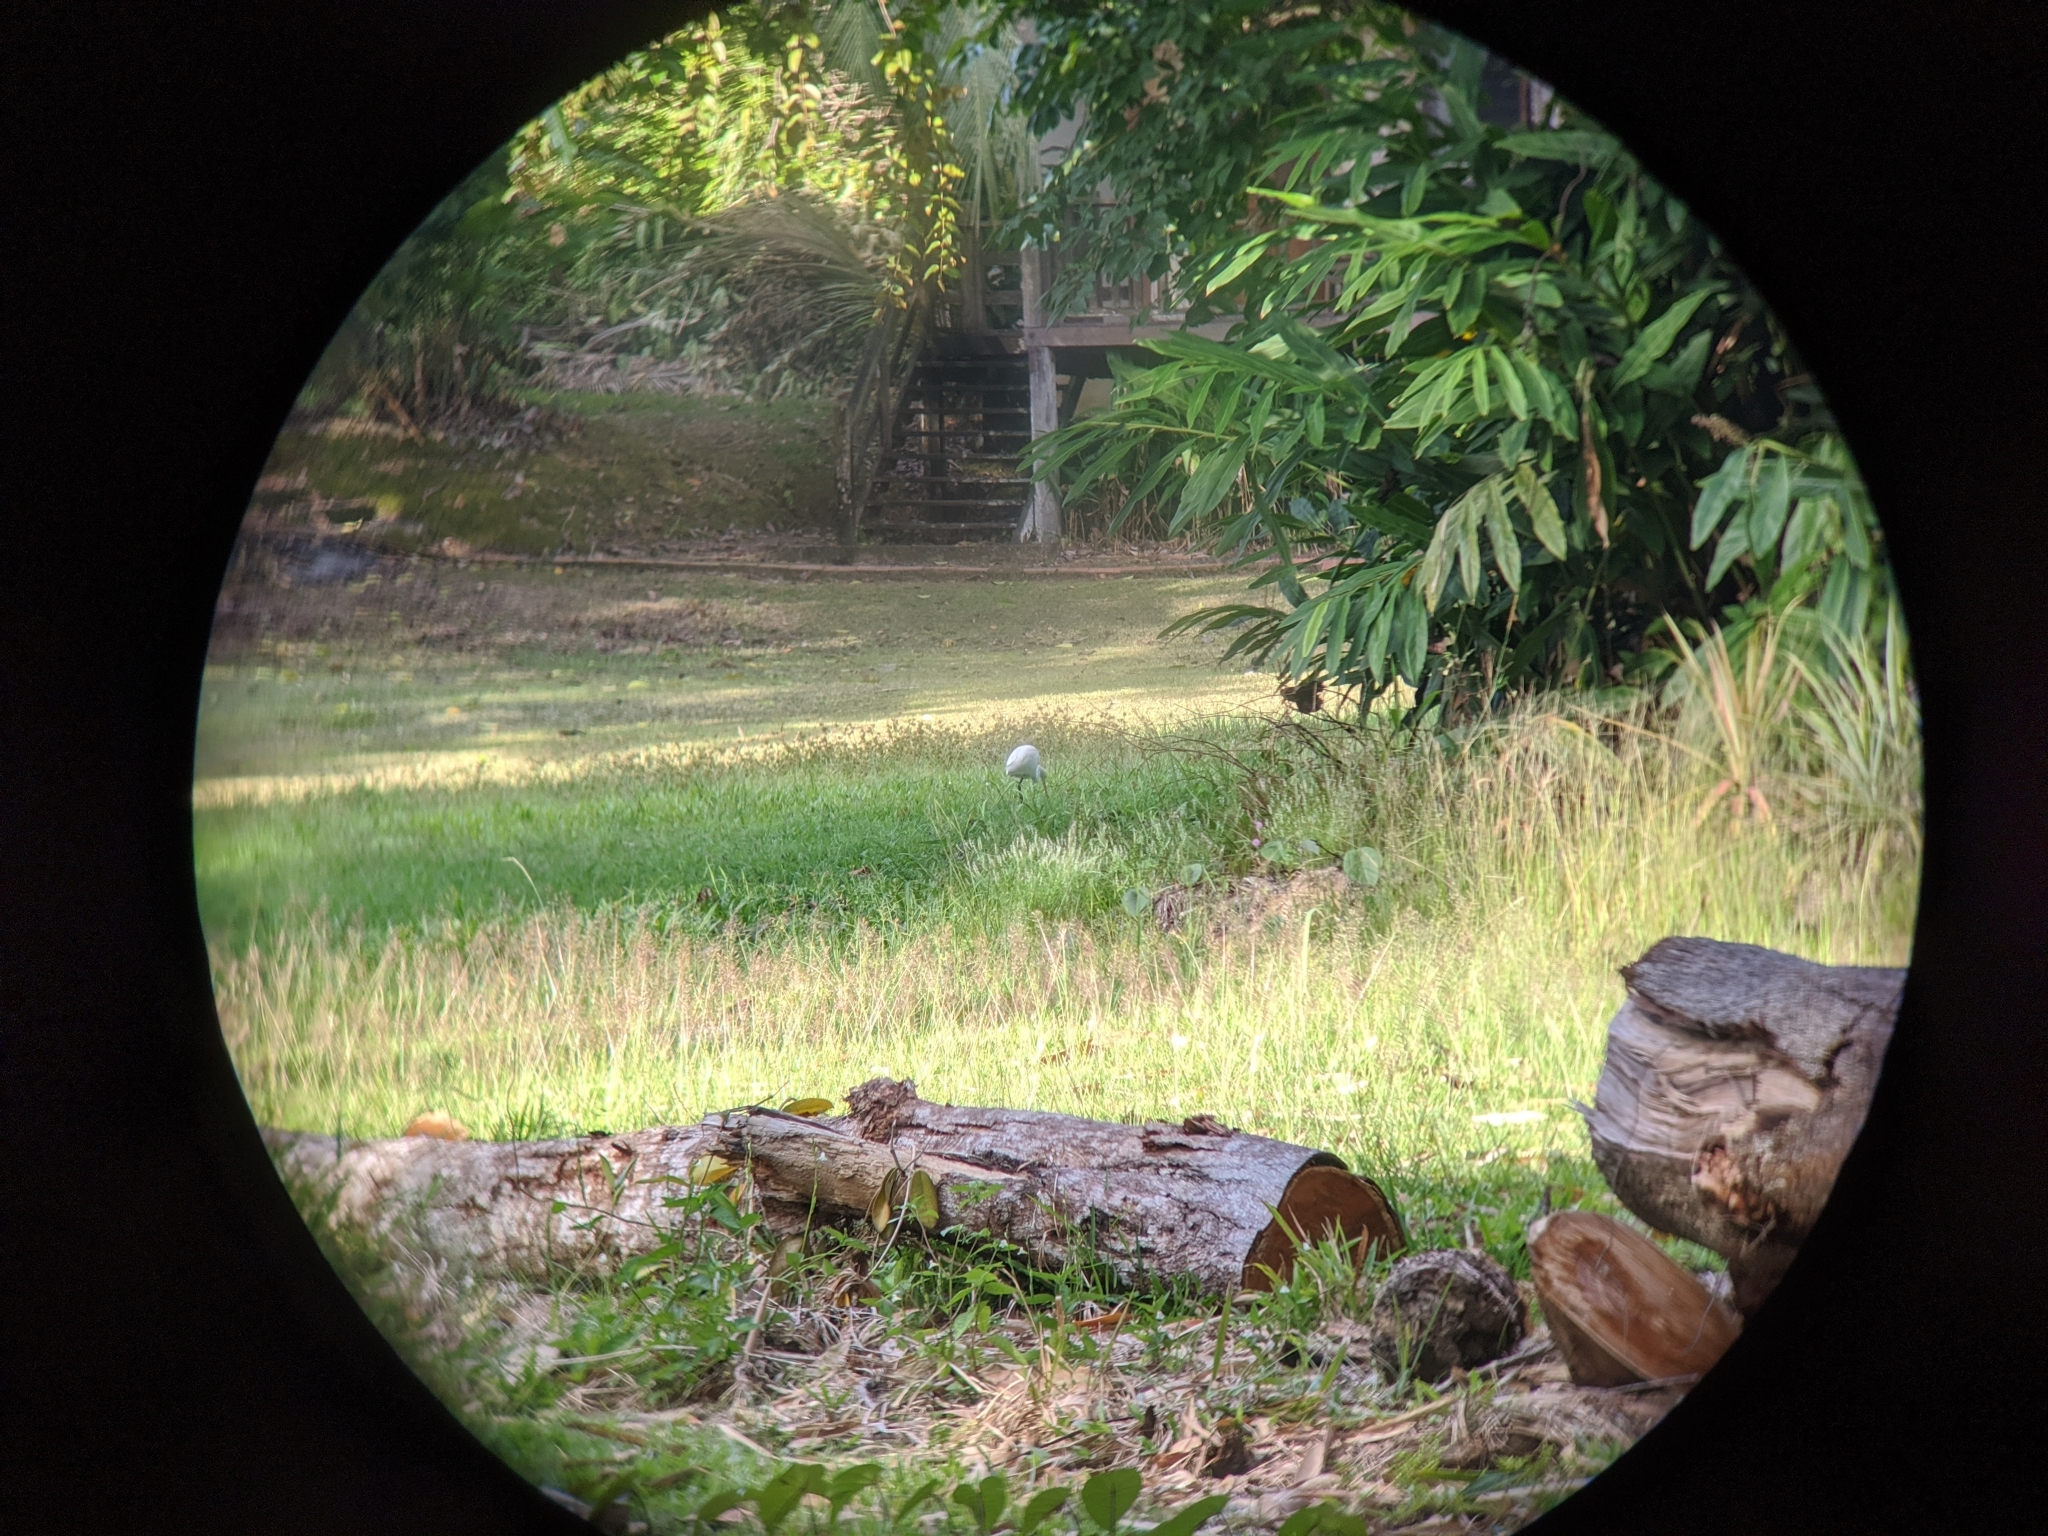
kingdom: Animalia
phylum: Chordata
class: Aves
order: Pelecaniformes
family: Ardeidae
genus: Egretta
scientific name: Egretta intermedia
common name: Intermediate egret
